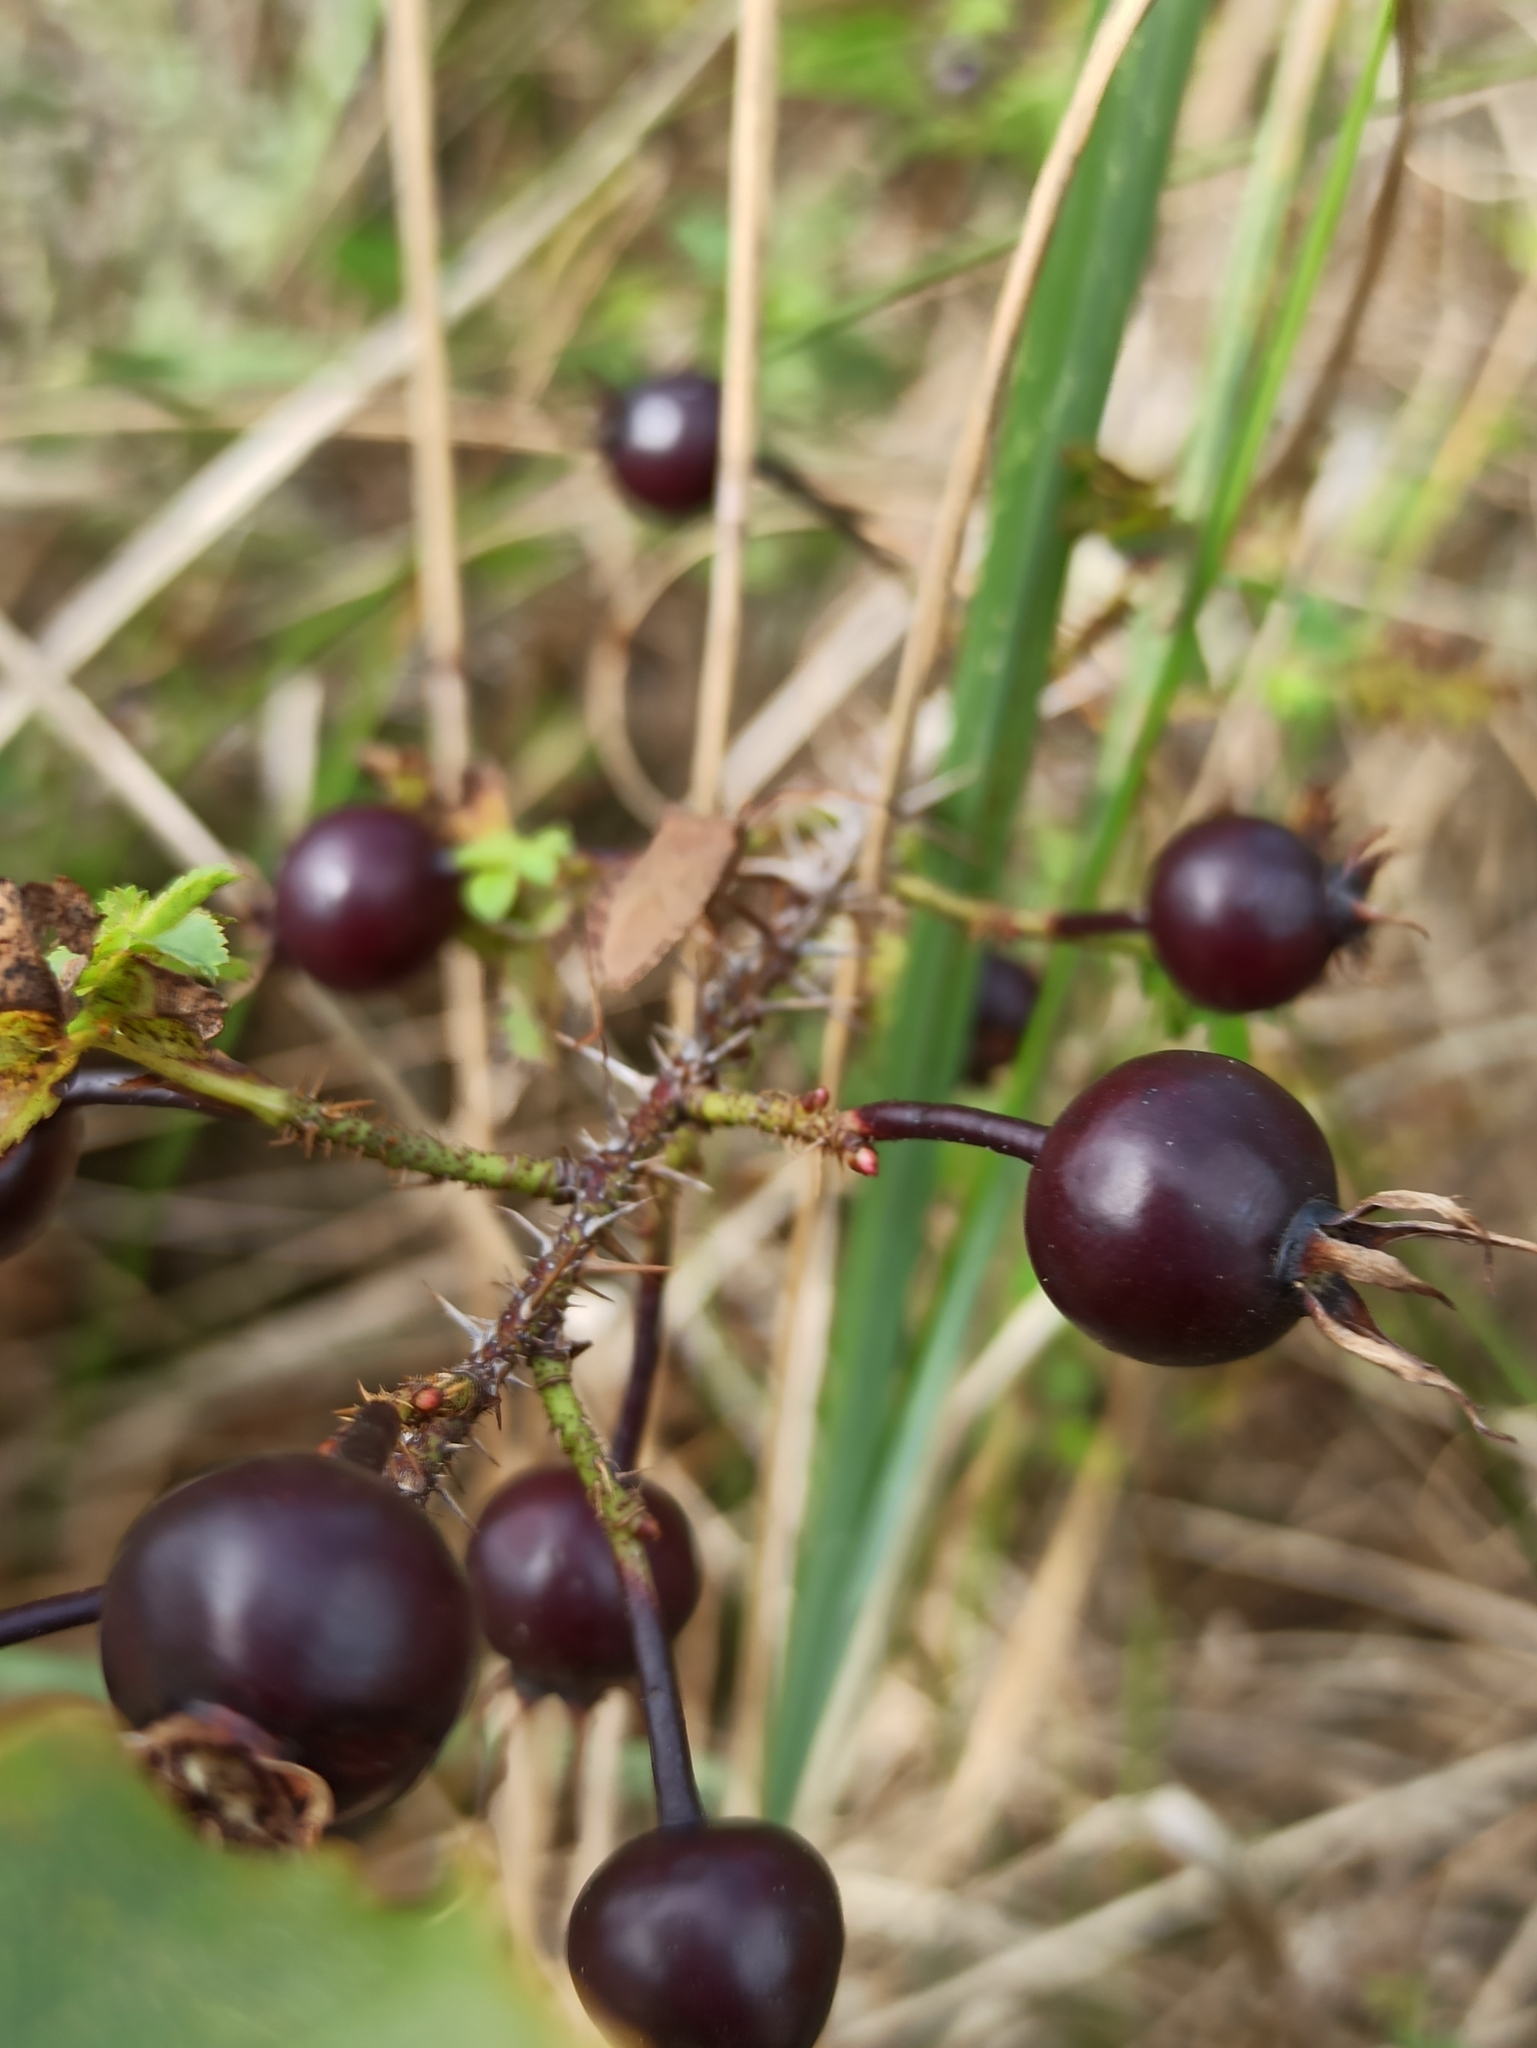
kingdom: Plantae
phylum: Tracheophyta
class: Magnoliopsida
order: Rosales
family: Rosaceae
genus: Rosa
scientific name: Rosa spinosissima
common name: Burnet rose
